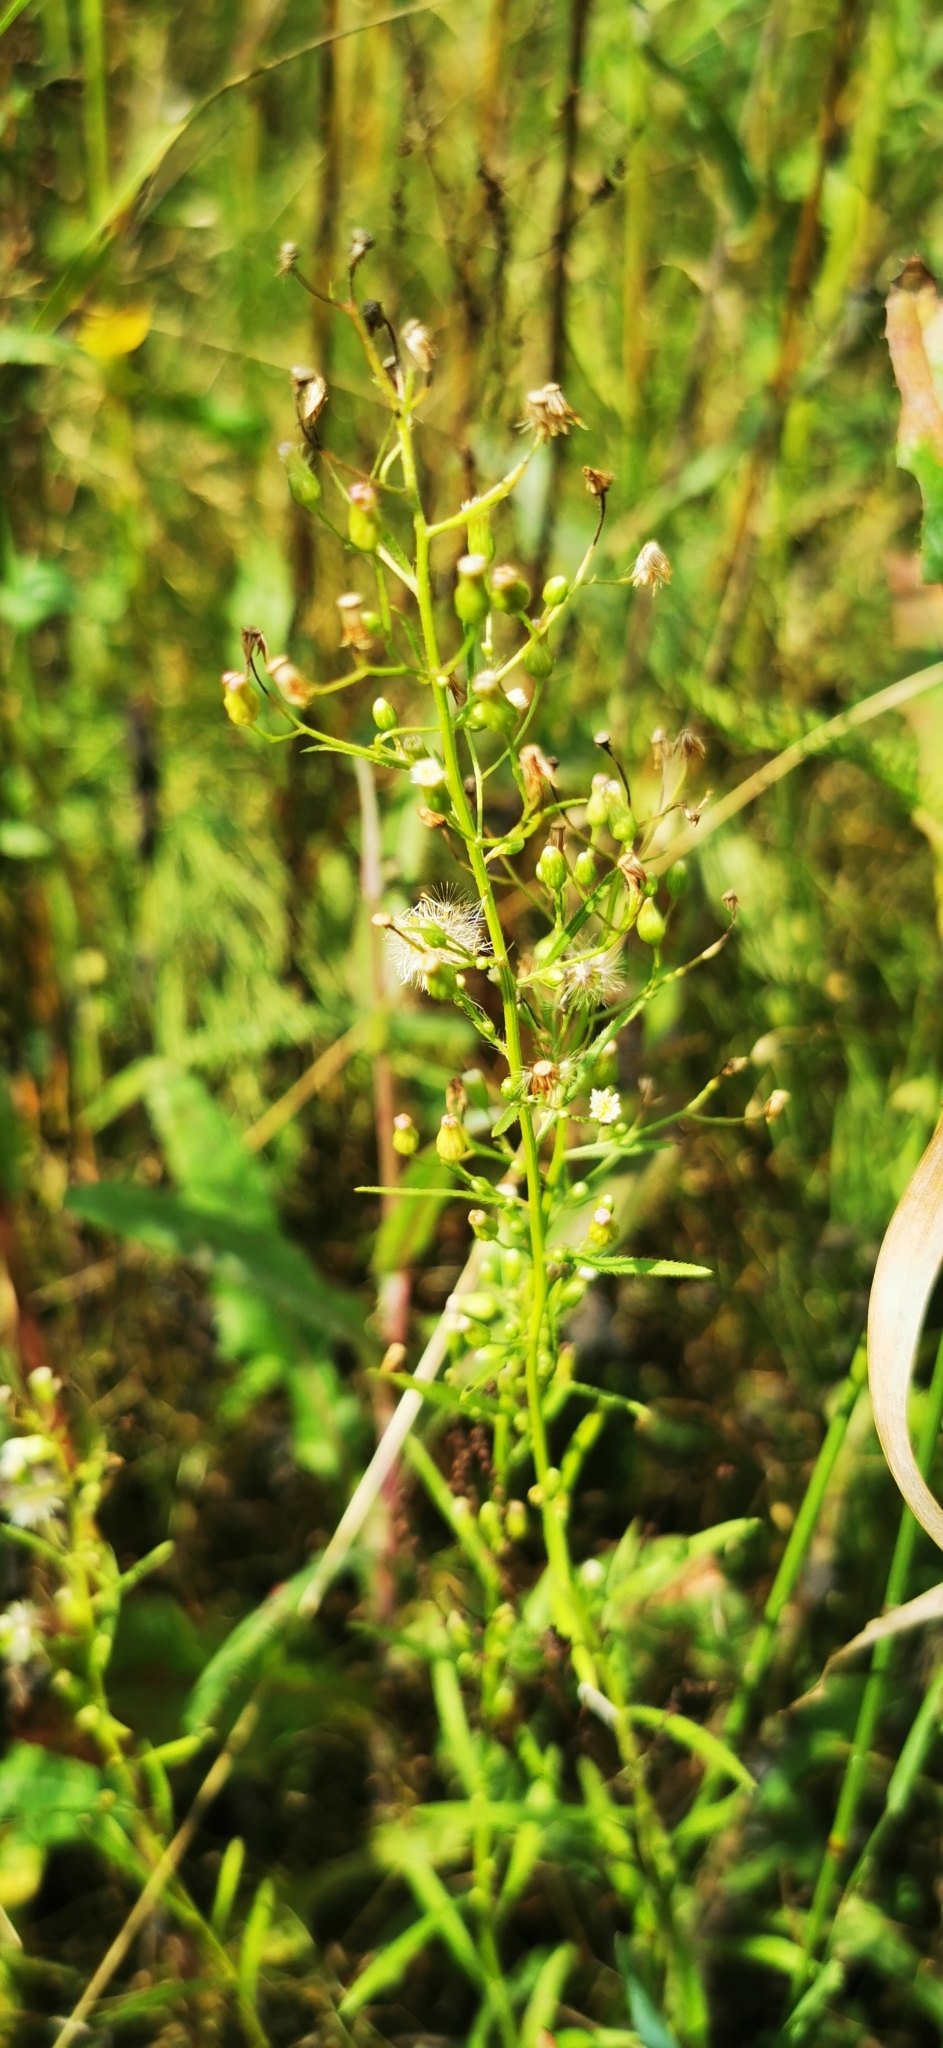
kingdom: Plantae
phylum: Tracheophyta
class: Magnoliopsida
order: Asterales
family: Asteraceae
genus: Erigeron
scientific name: Erigeron canadensis
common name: Canadian fleabane
